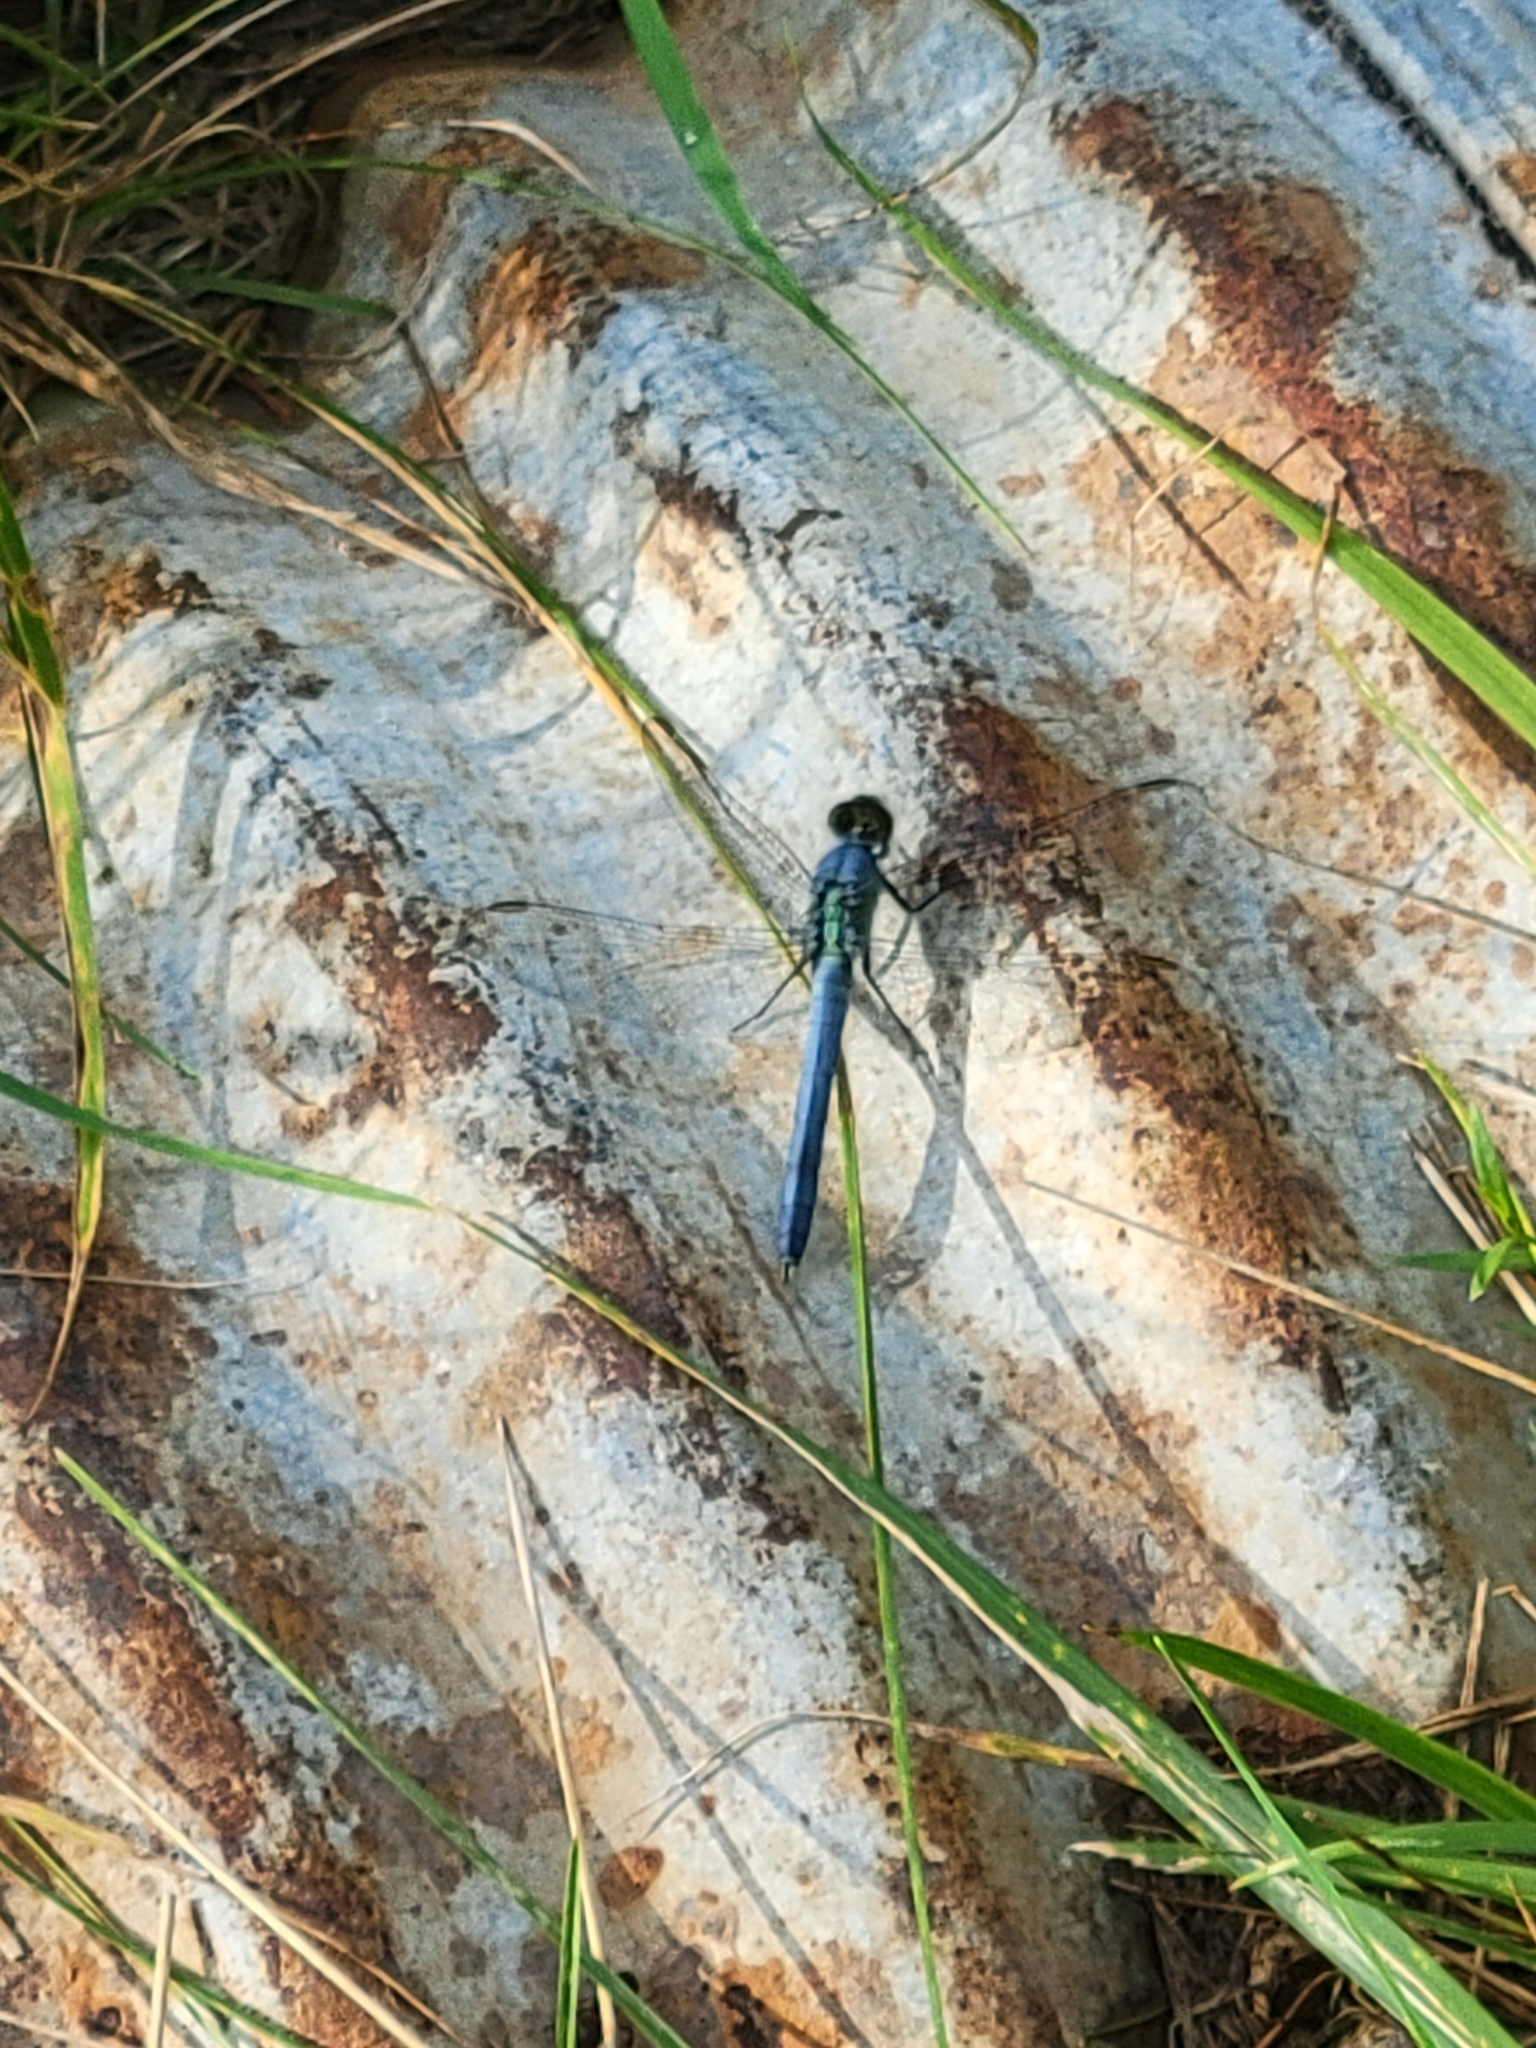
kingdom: Animalia
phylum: Arthropoda
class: Insecta
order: Odonata
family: Libellulidae
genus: Erythemis
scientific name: Erythemis simplicicollis
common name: Eastern pondhawk
